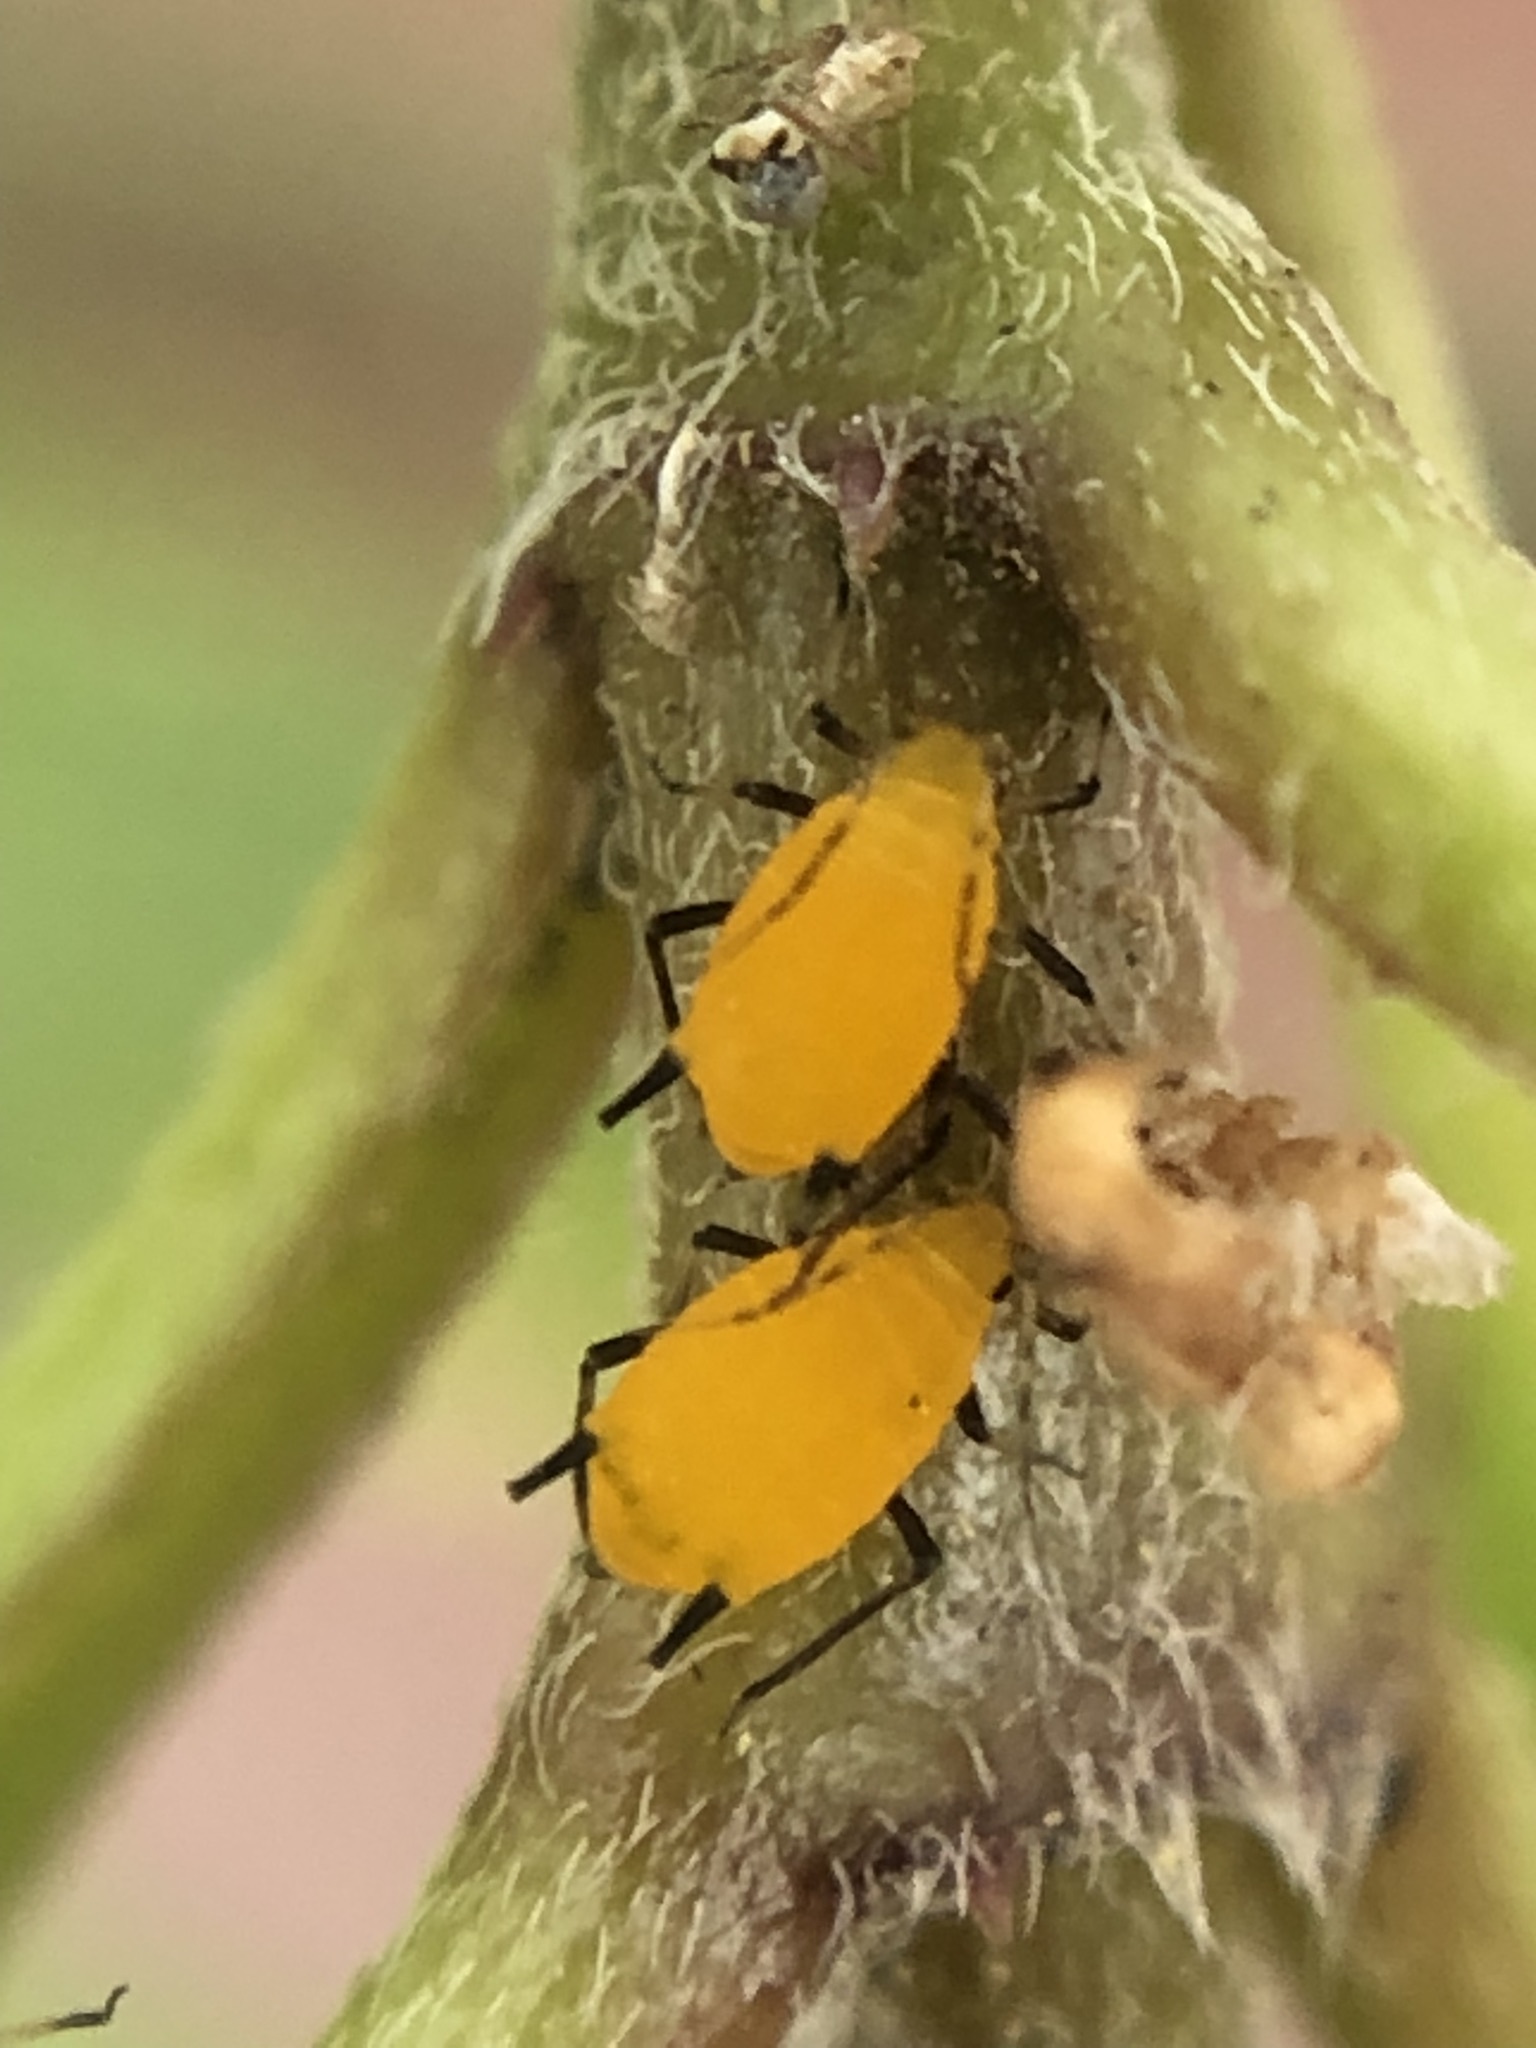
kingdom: Animalia
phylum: Arthropoda
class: Insecta
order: Hemiptera
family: Aphididae
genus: Aphis
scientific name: Aphis nerii
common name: Oleander aphid
